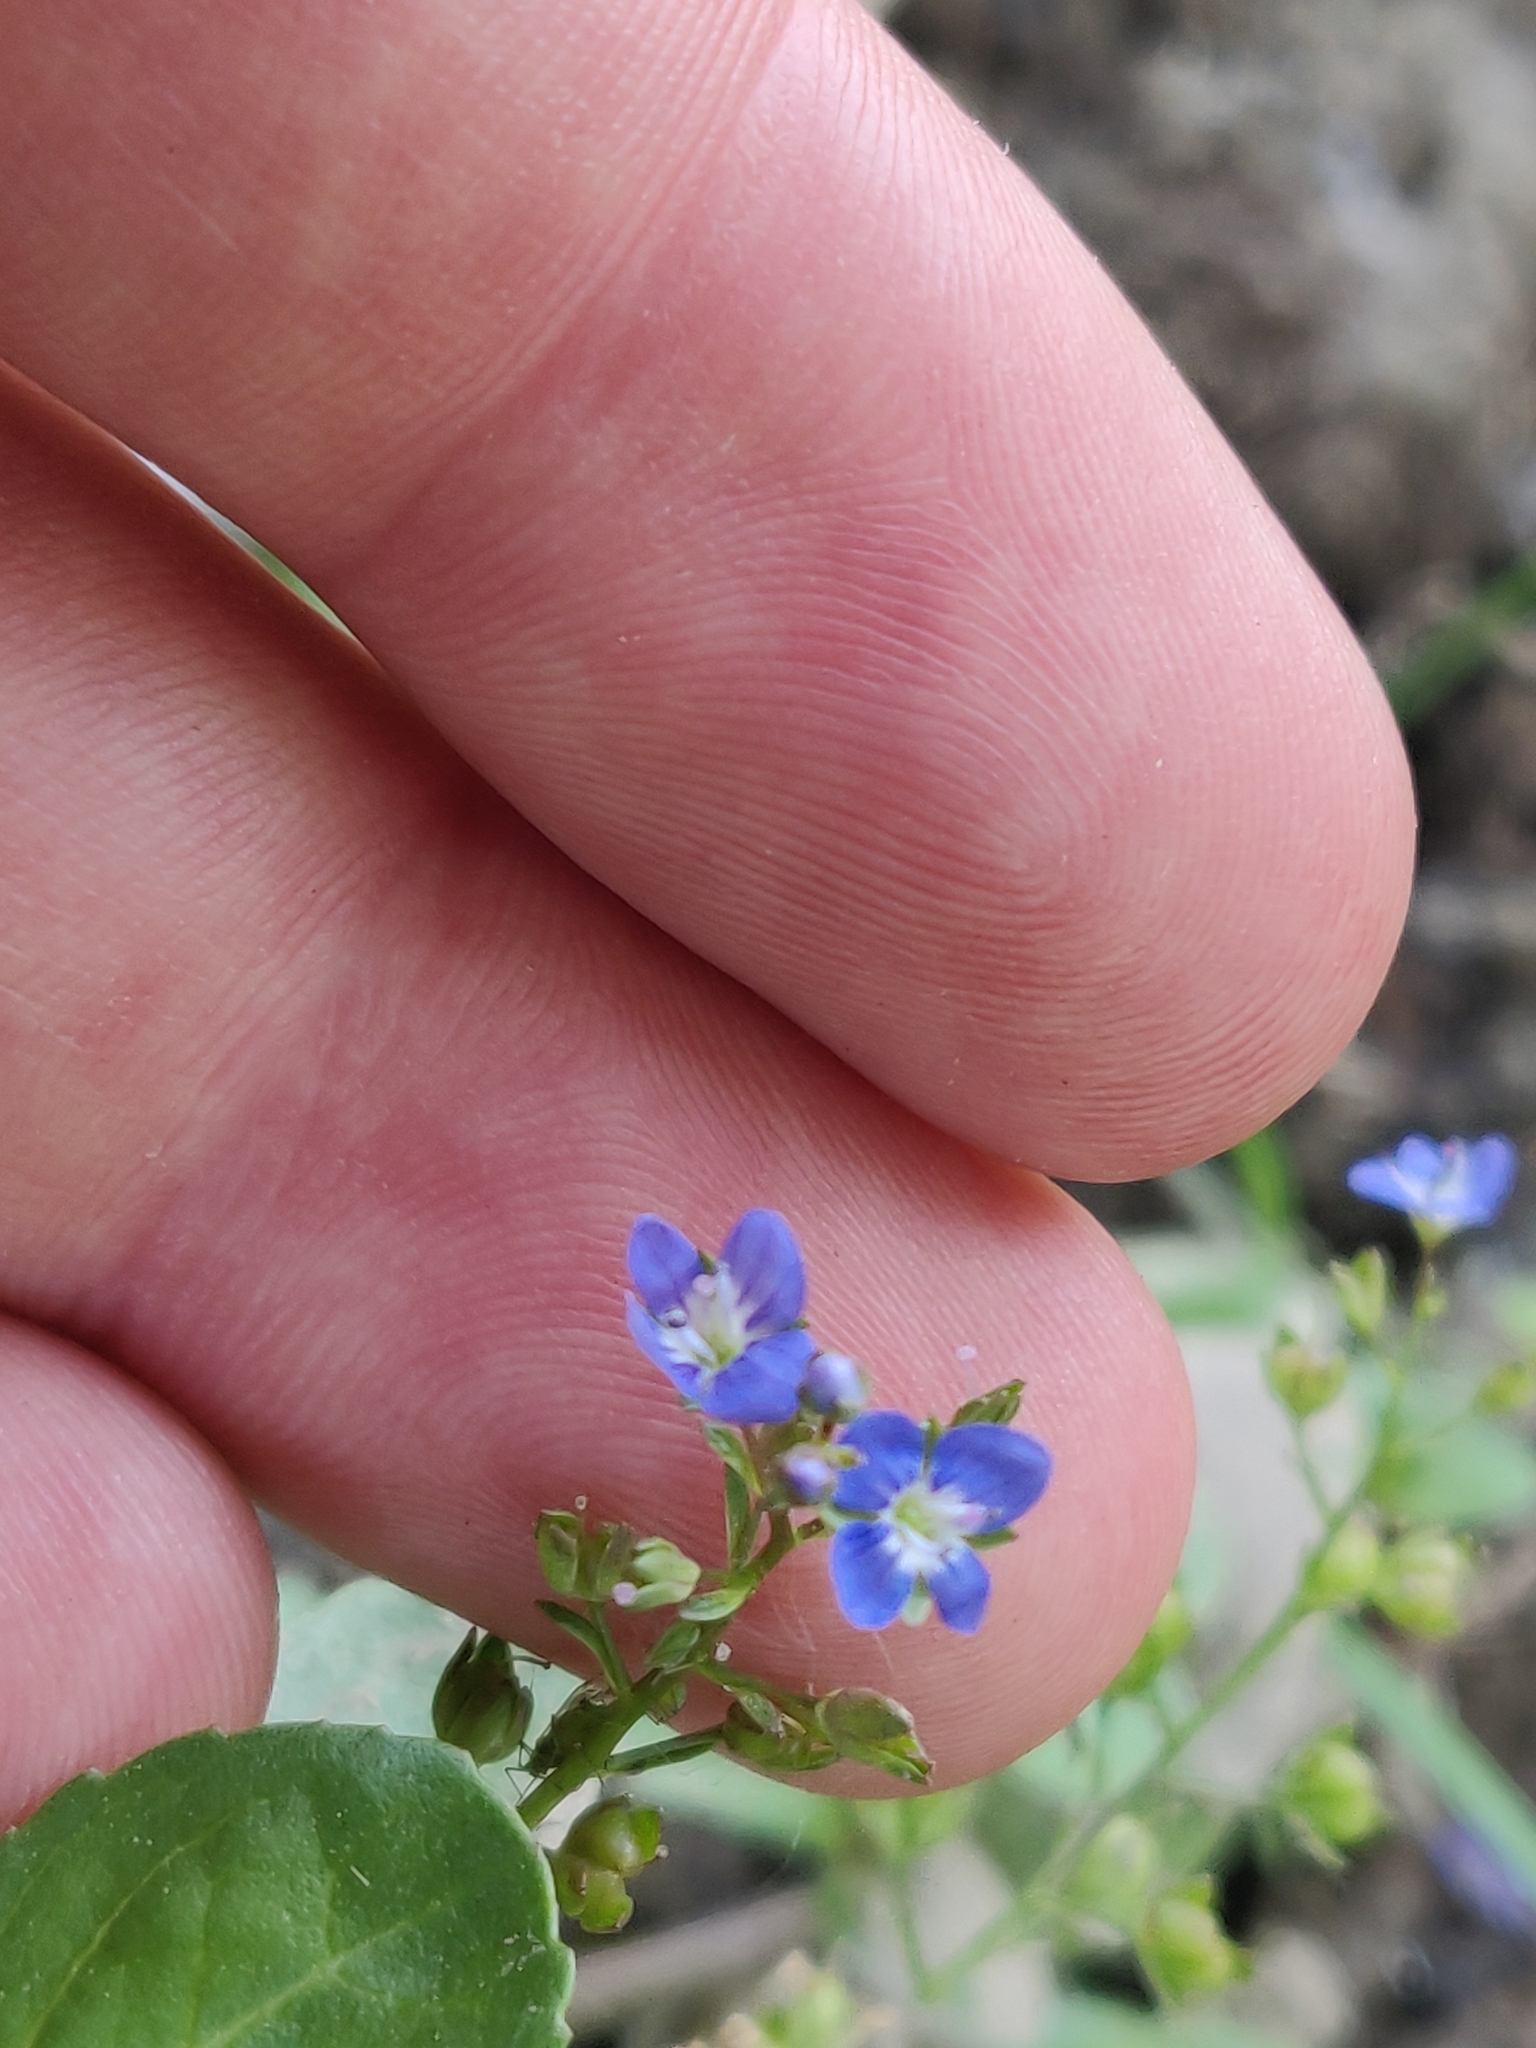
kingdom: Plantae
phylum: Tracheophyta
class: Magnoliopsida
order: Lamiales
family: Plantaginaceae
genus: Veronica
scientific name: Veronica beccabunga
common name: Brooklime
